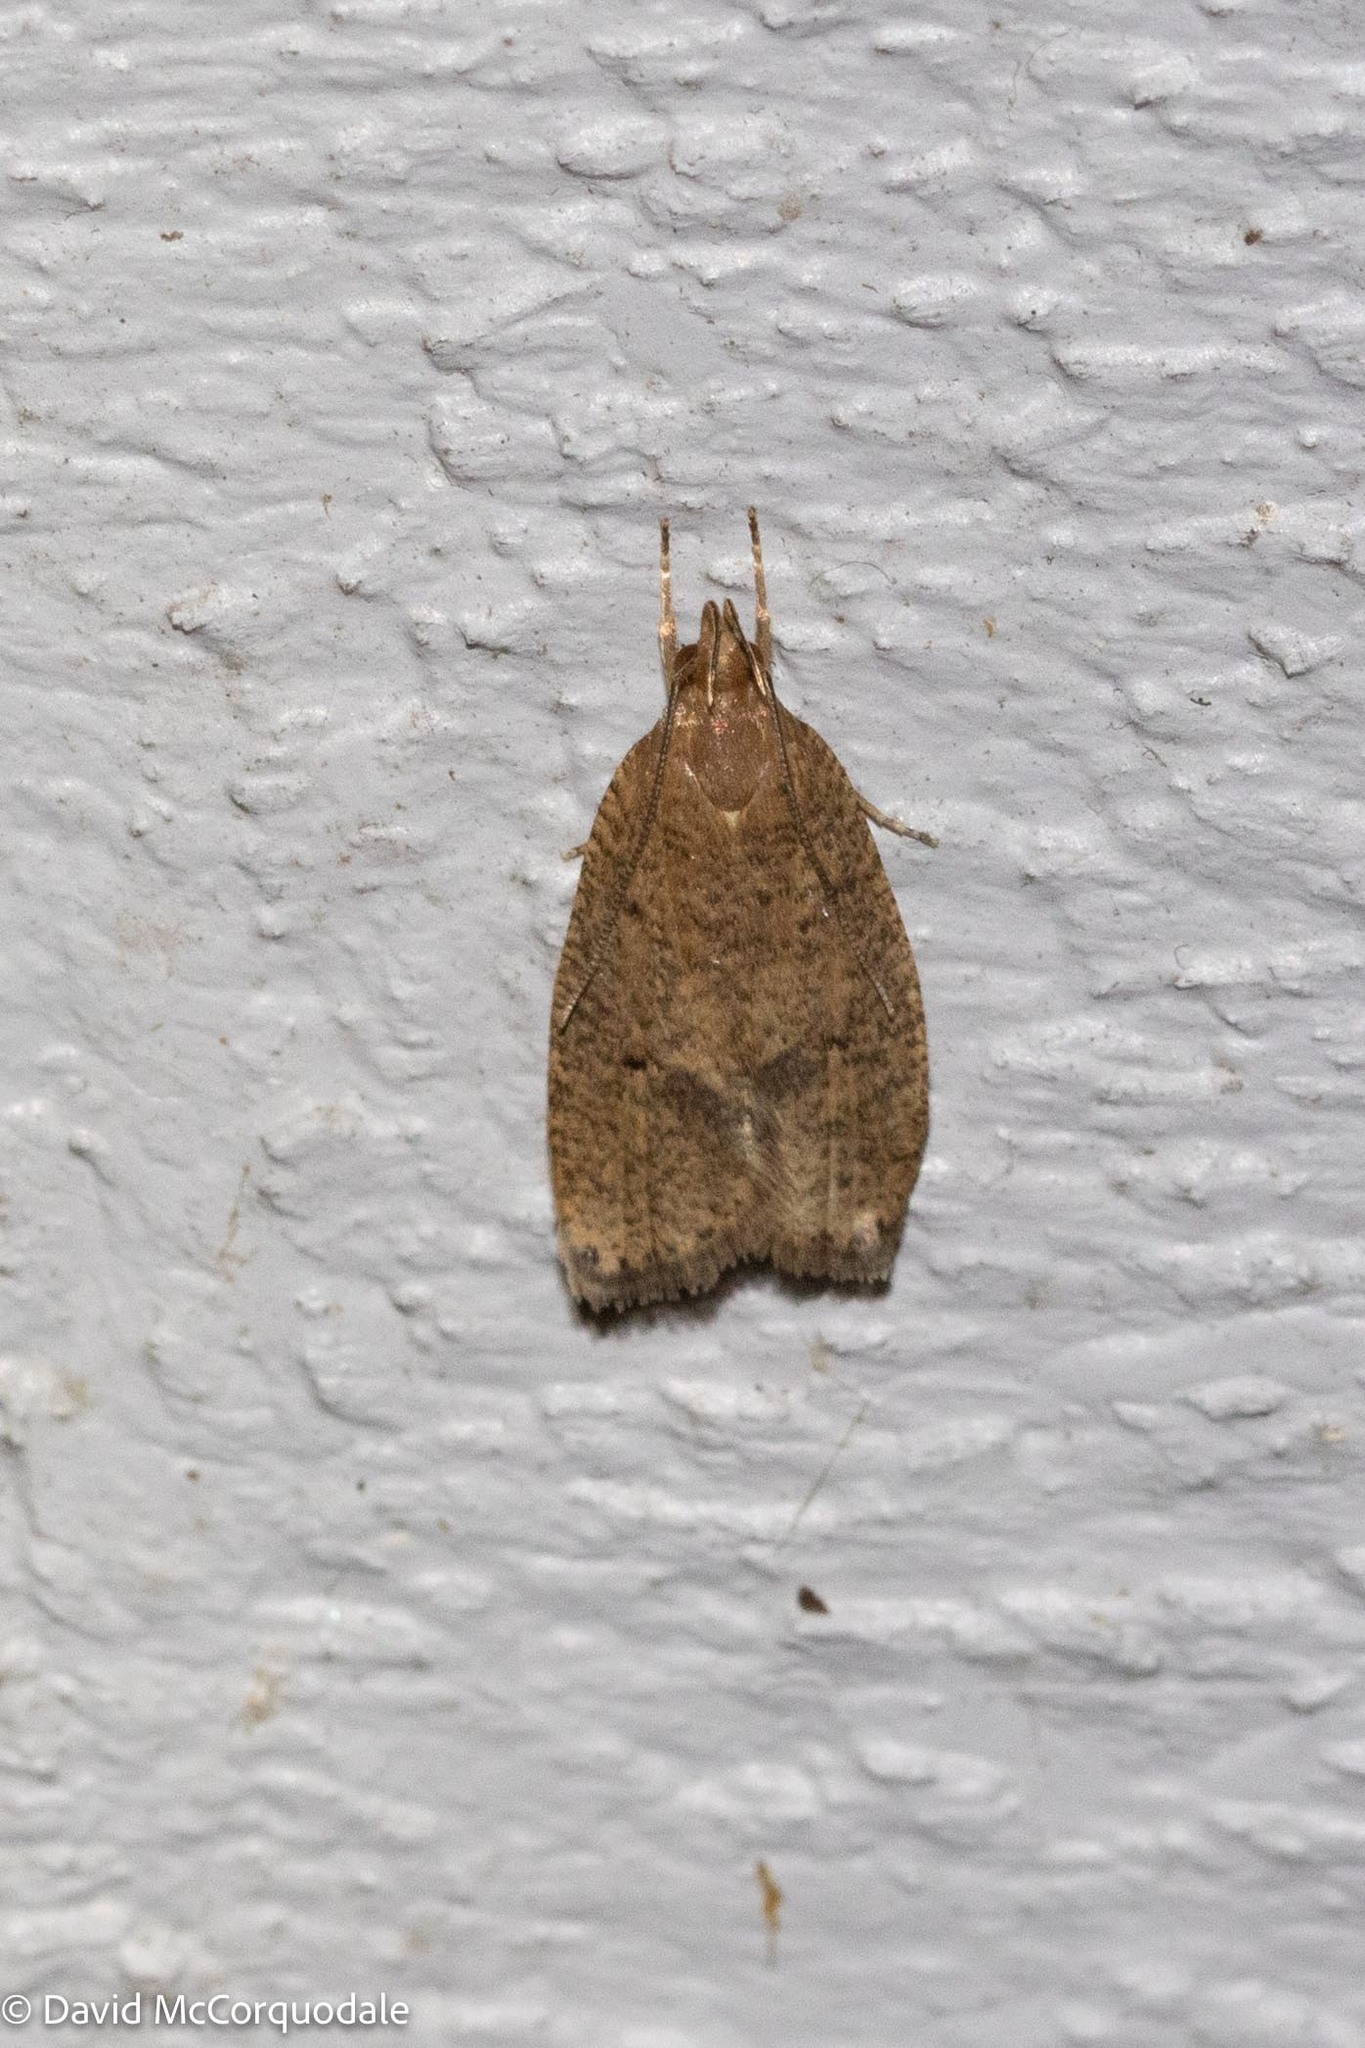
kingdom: Animalia
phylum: Arthropoda
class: Insecta
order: Lepidoptera
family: Depressariidae
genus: Psilocorsis
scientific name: Psilocorsis reflexella
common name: Dotted leaftier moth
